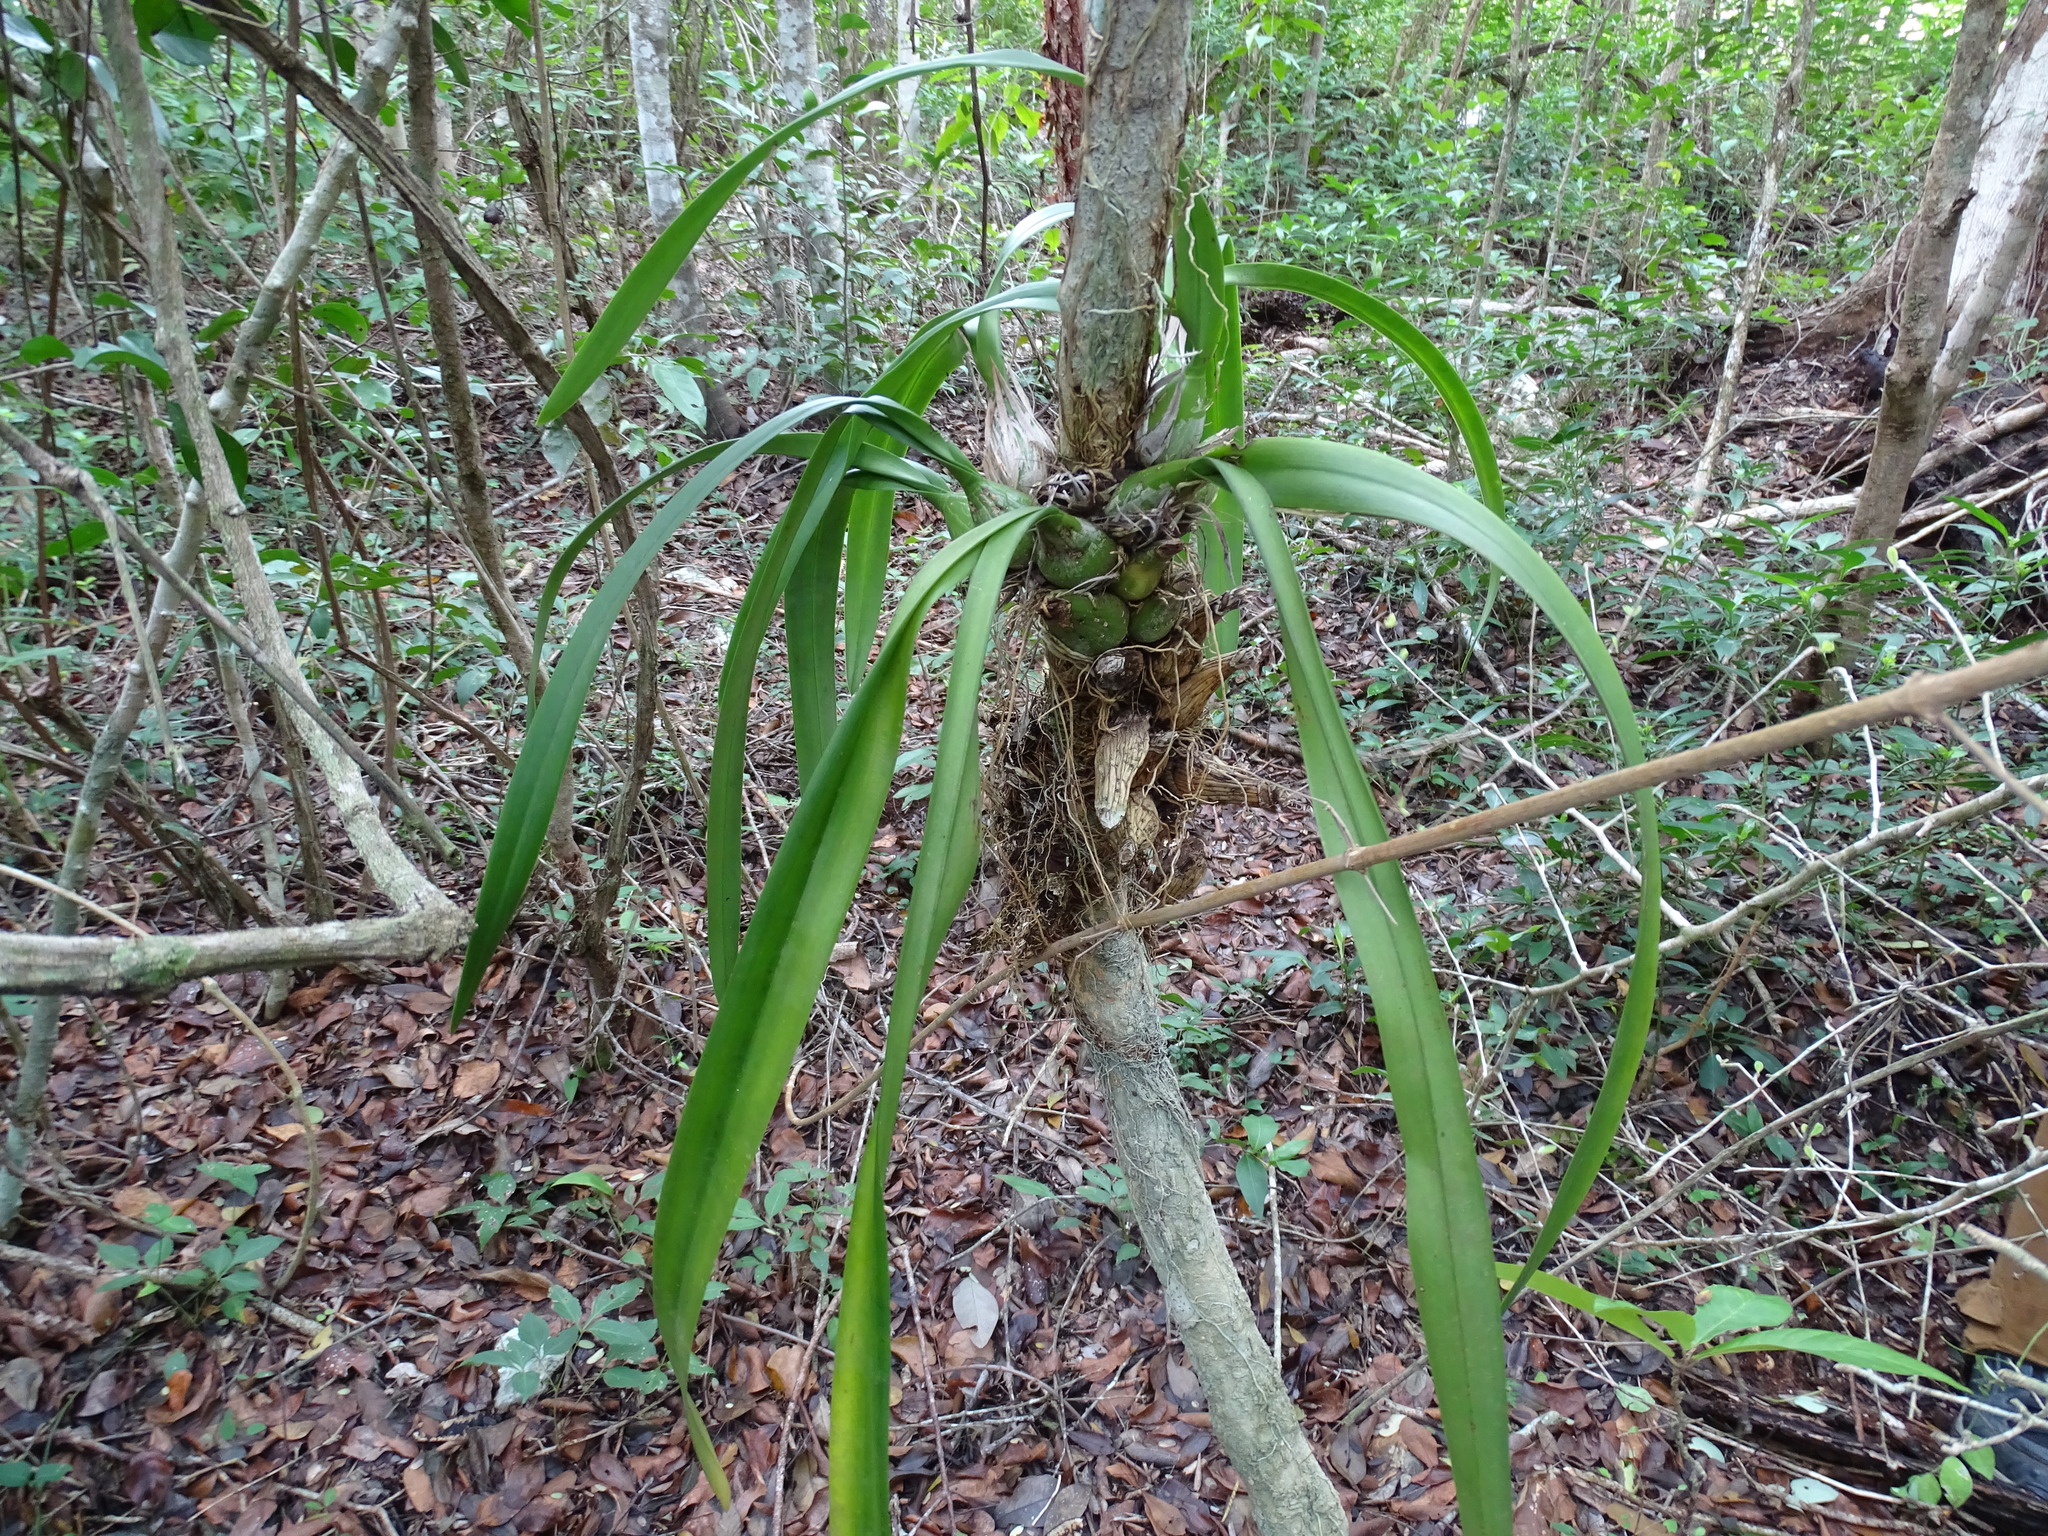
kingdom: Plantae
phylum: Tracheophyta
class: Liliopsida
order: Asparagales
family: Orchidaceae
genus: Encyclia
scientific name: Encyclia alata
